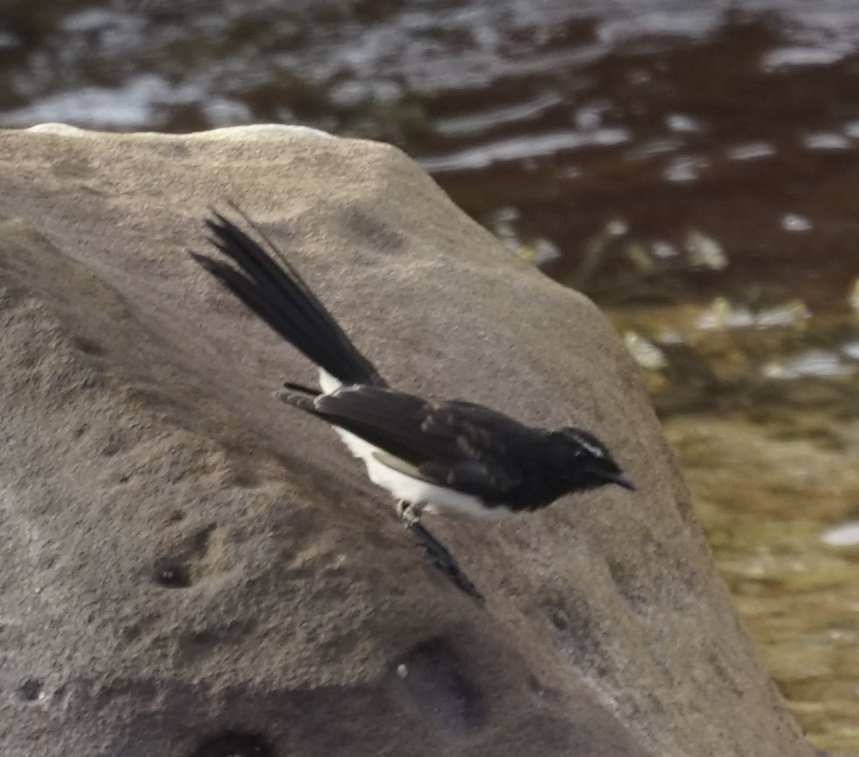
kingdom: Animalia
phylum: Chordata
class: Aves
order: Passeriformes
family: Rhipiduridae
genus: Rhipidura
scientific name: Rhipidura leucophrys
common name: Willie wagtail
